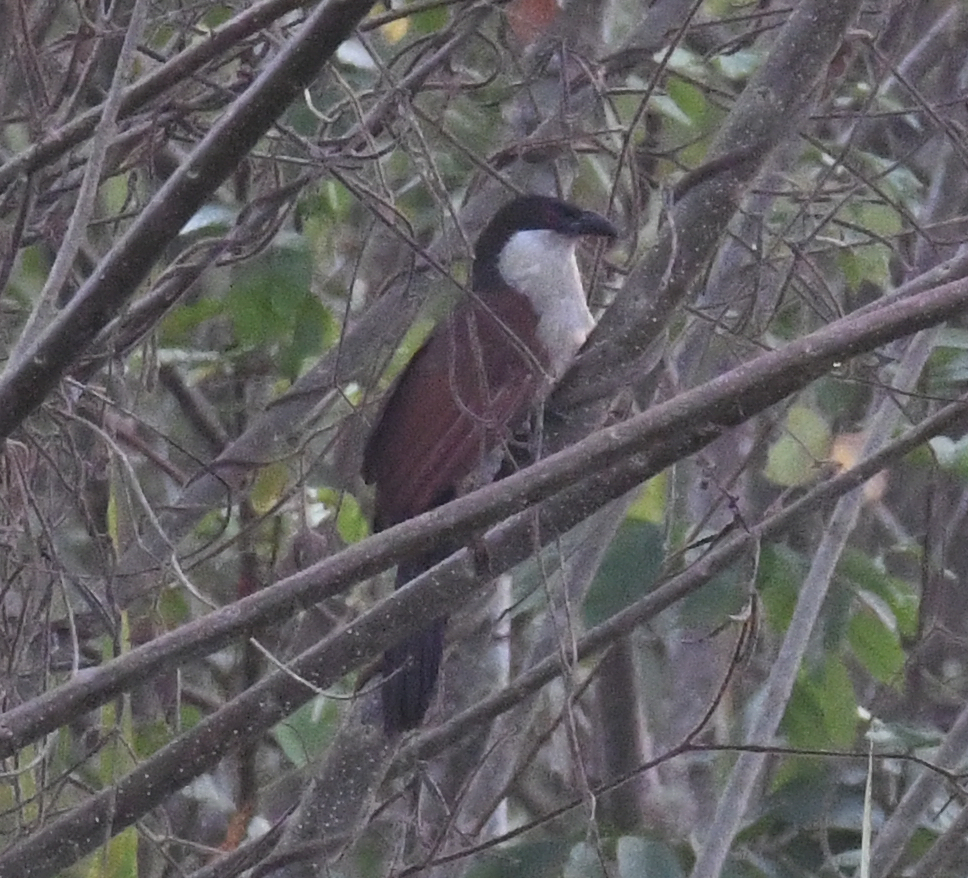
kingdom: Animalia
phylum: Chordata
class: Aves
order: Cuculiformes
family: Cuculidae
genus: Centropus
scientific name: Centropus senegalensis
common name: Senegal coucal
